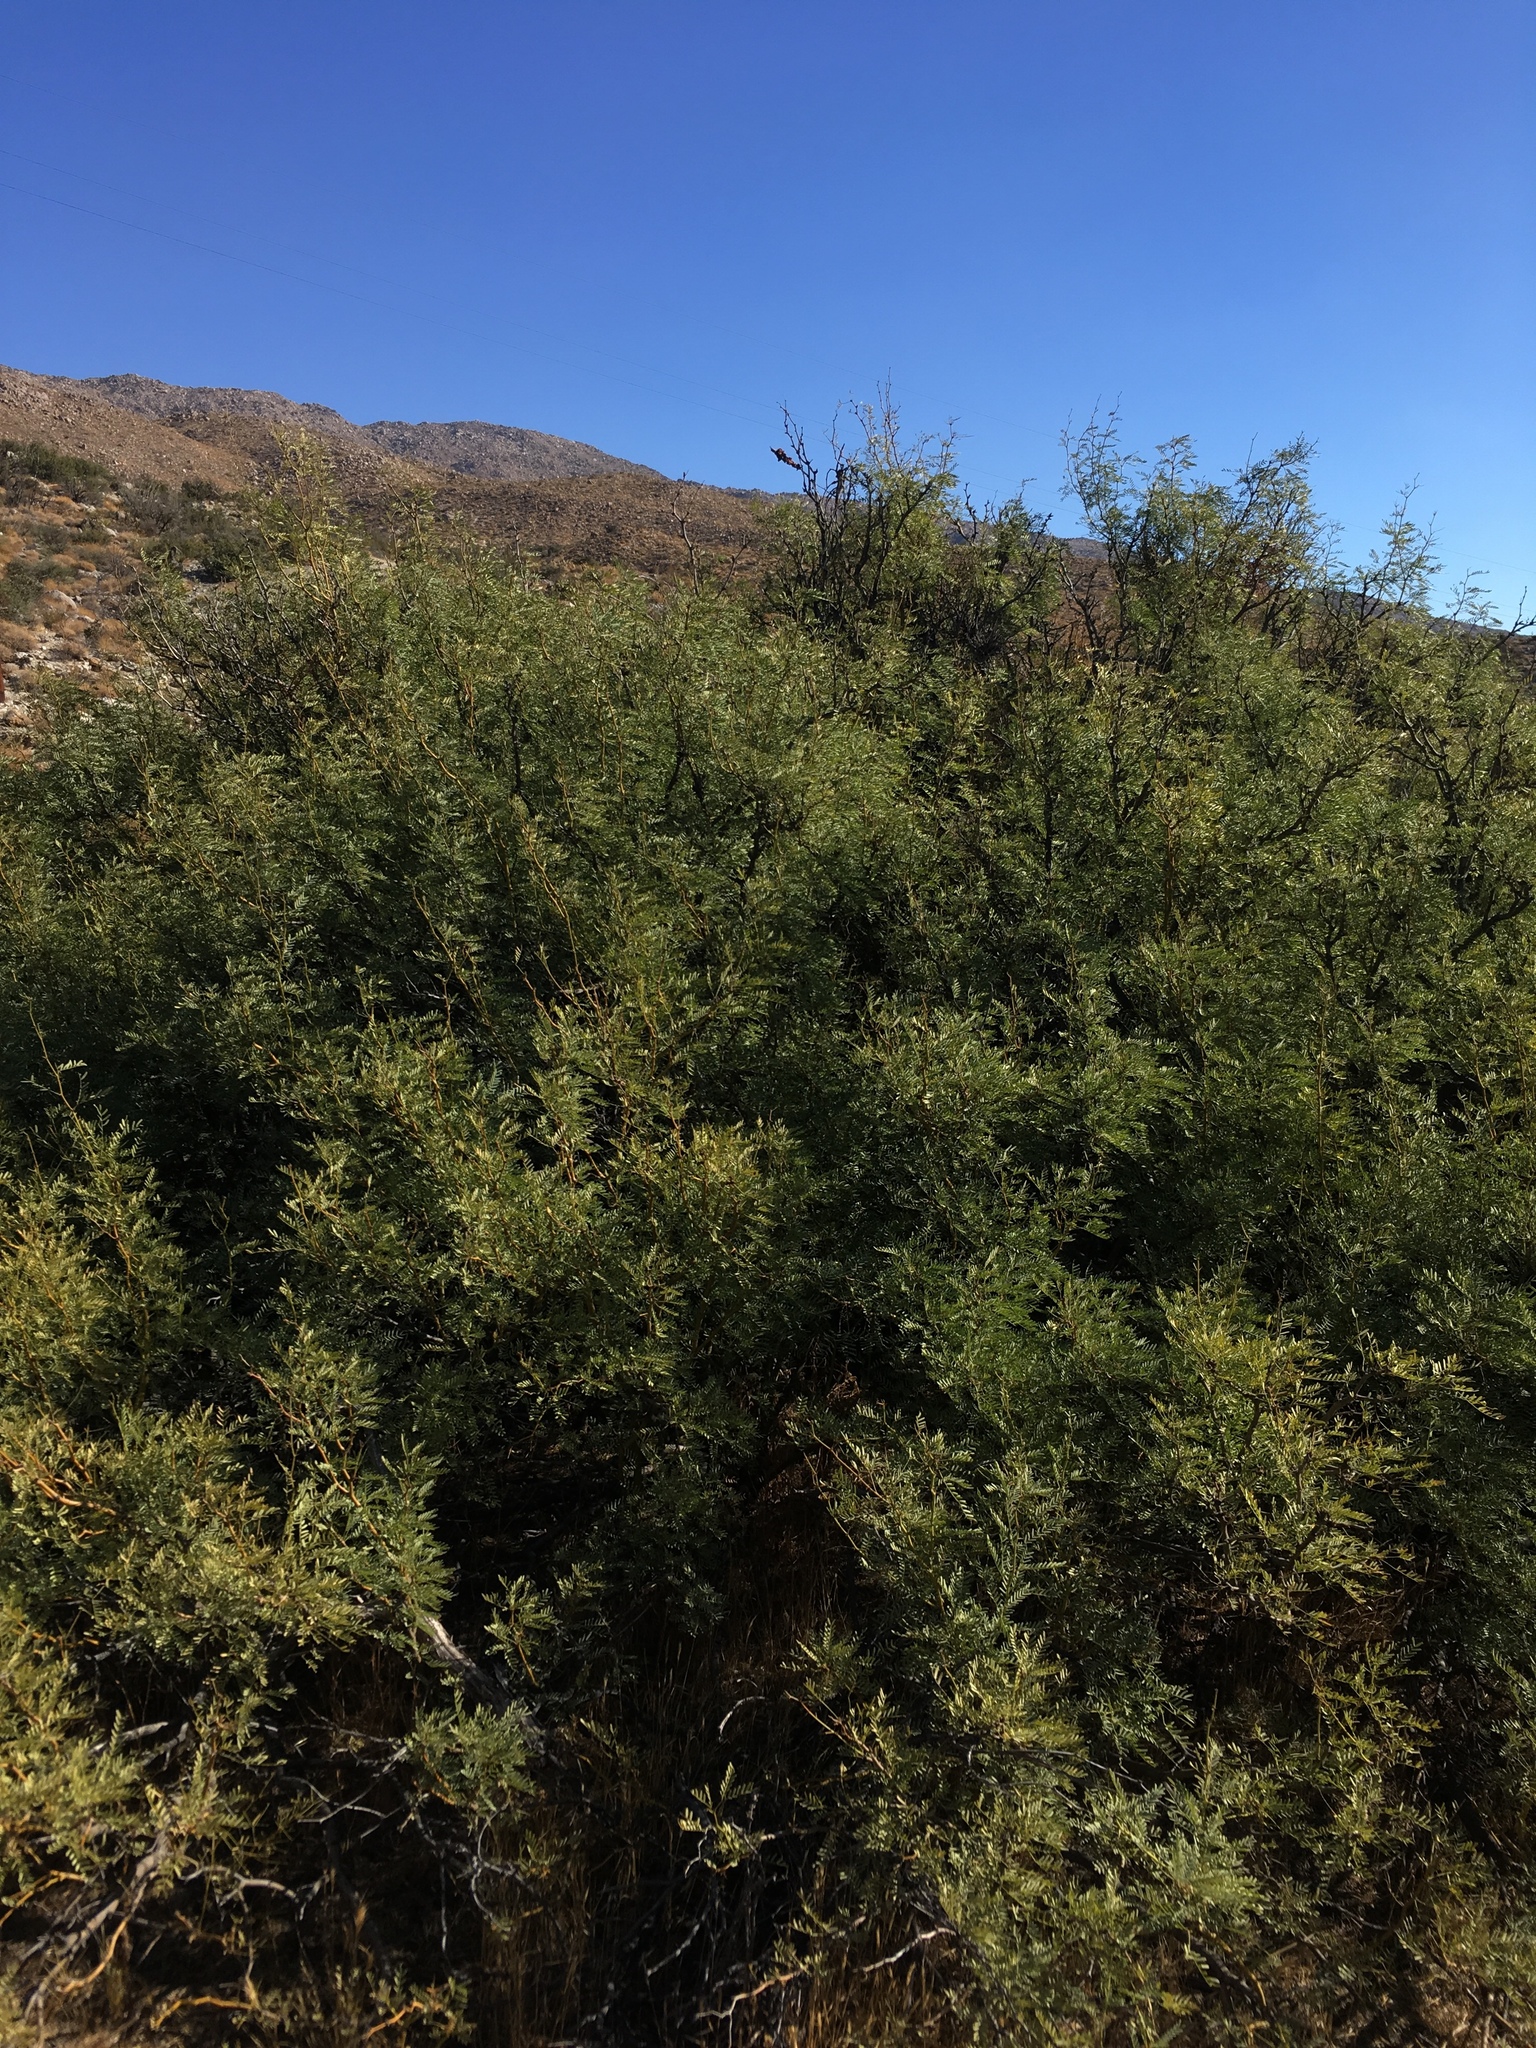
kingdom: Plantae
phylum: Tracheophyta
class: Magnoliopsida
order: Fabales
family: Fabaceae
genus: Prosopis
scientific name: Prosopis pubescens
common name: Screw-bean
